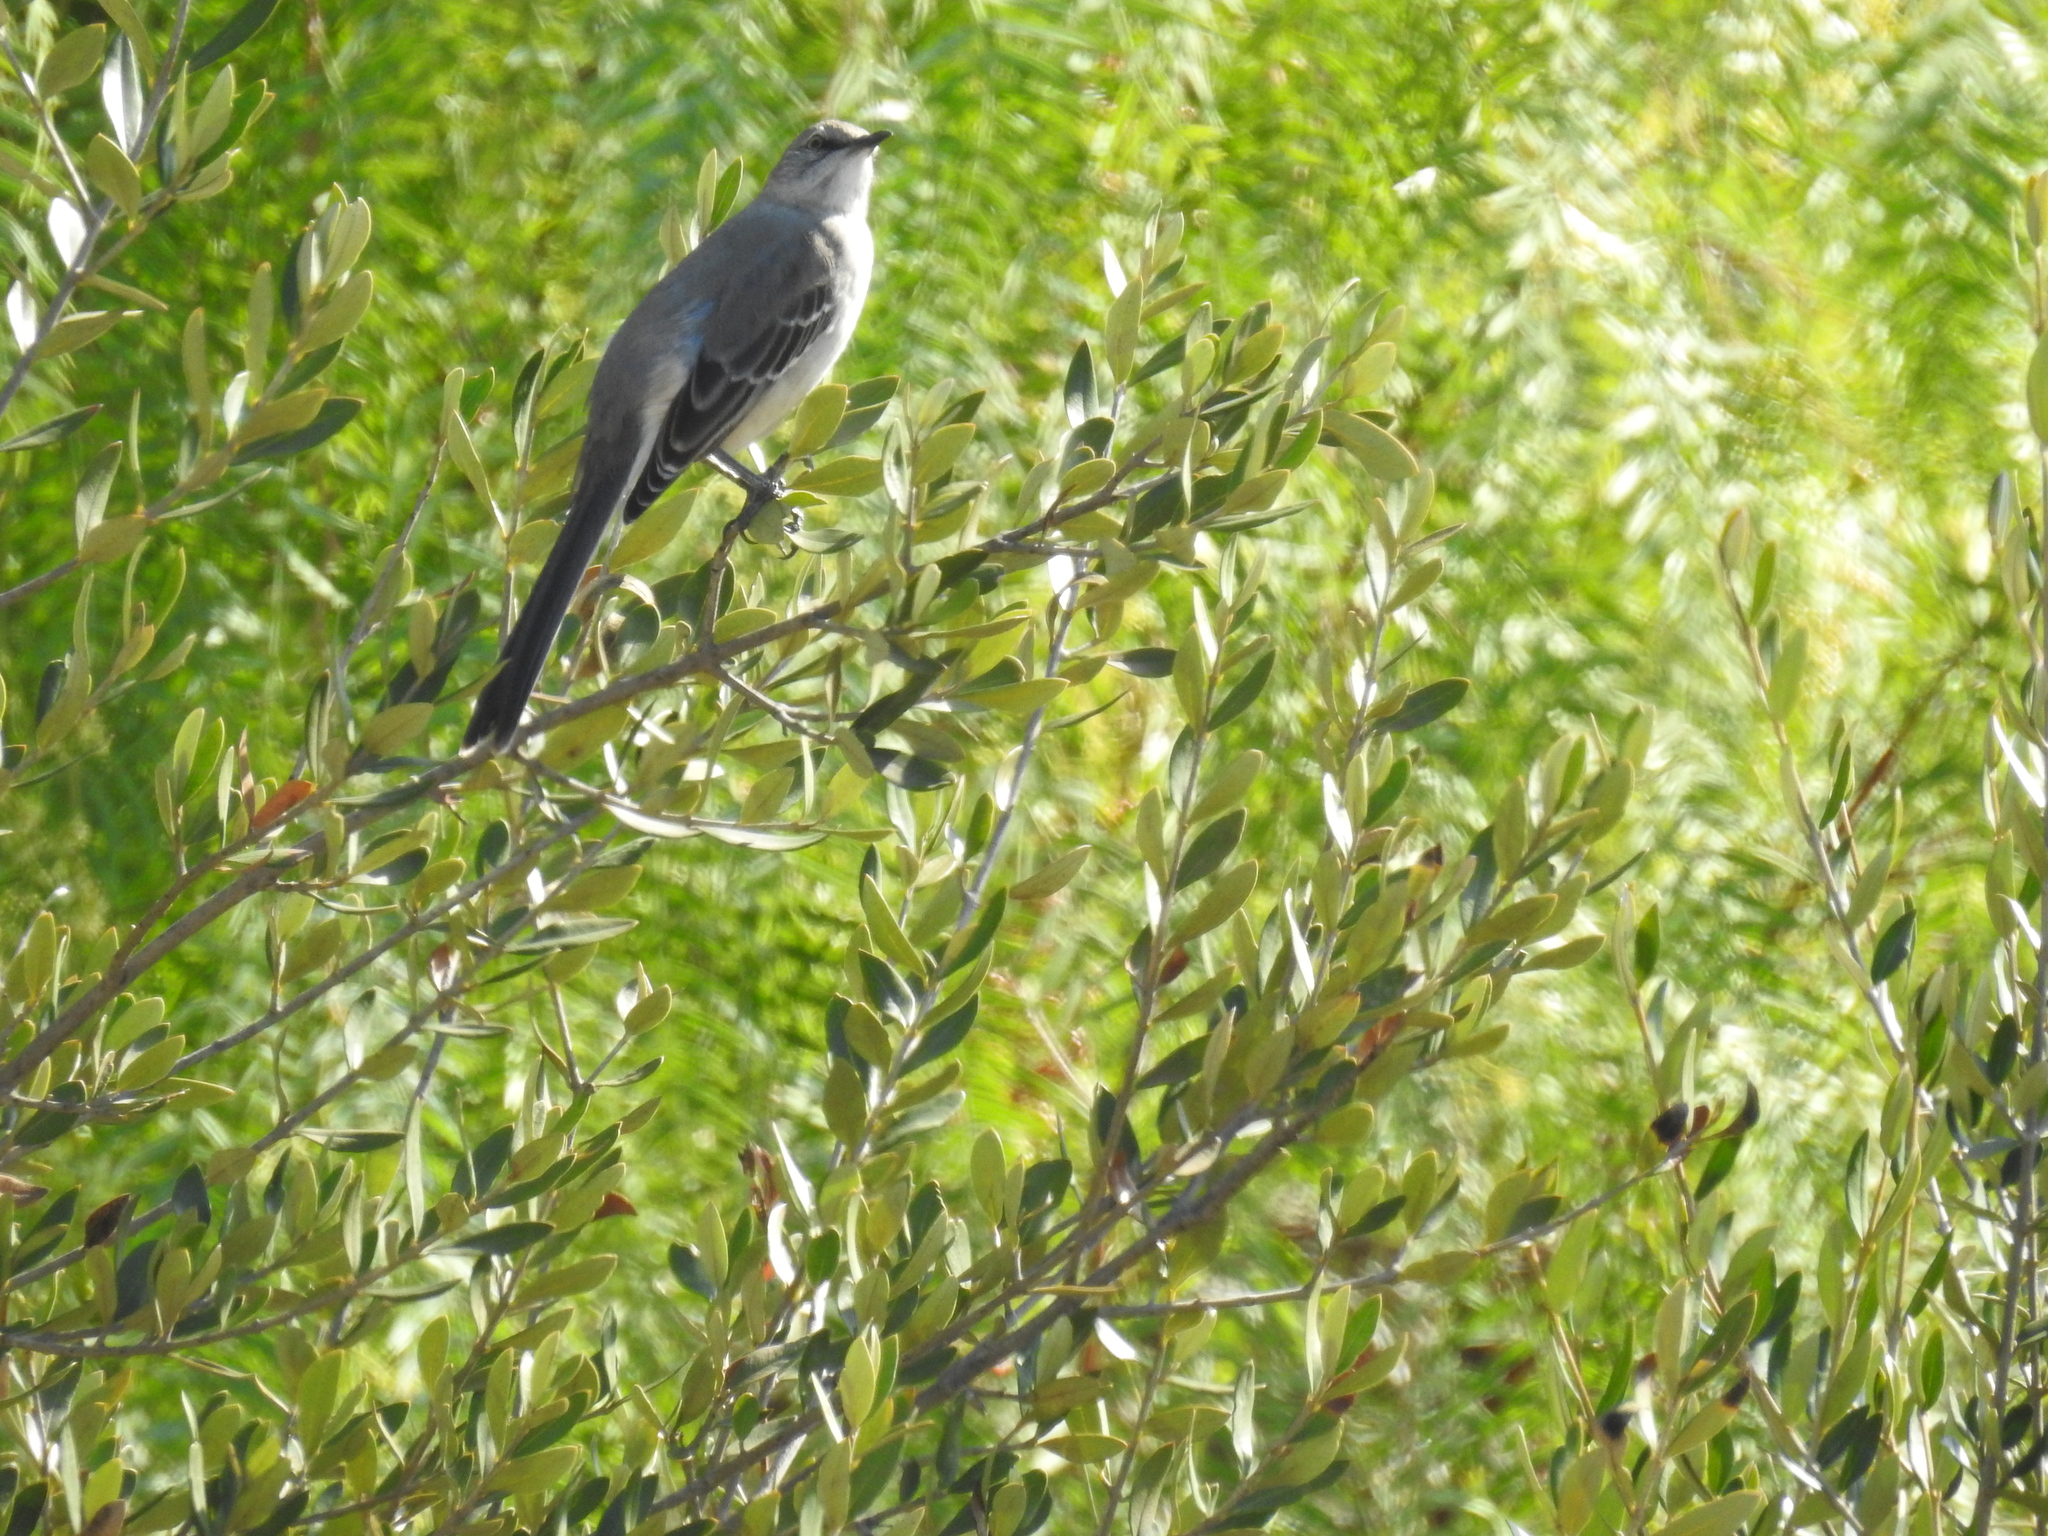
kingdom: Animalia
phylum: Chordata
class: Aves
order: Passeriformes
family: Mimidae
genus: Mimus
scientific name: Mimus polyglottos
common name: Northern mockingbird
